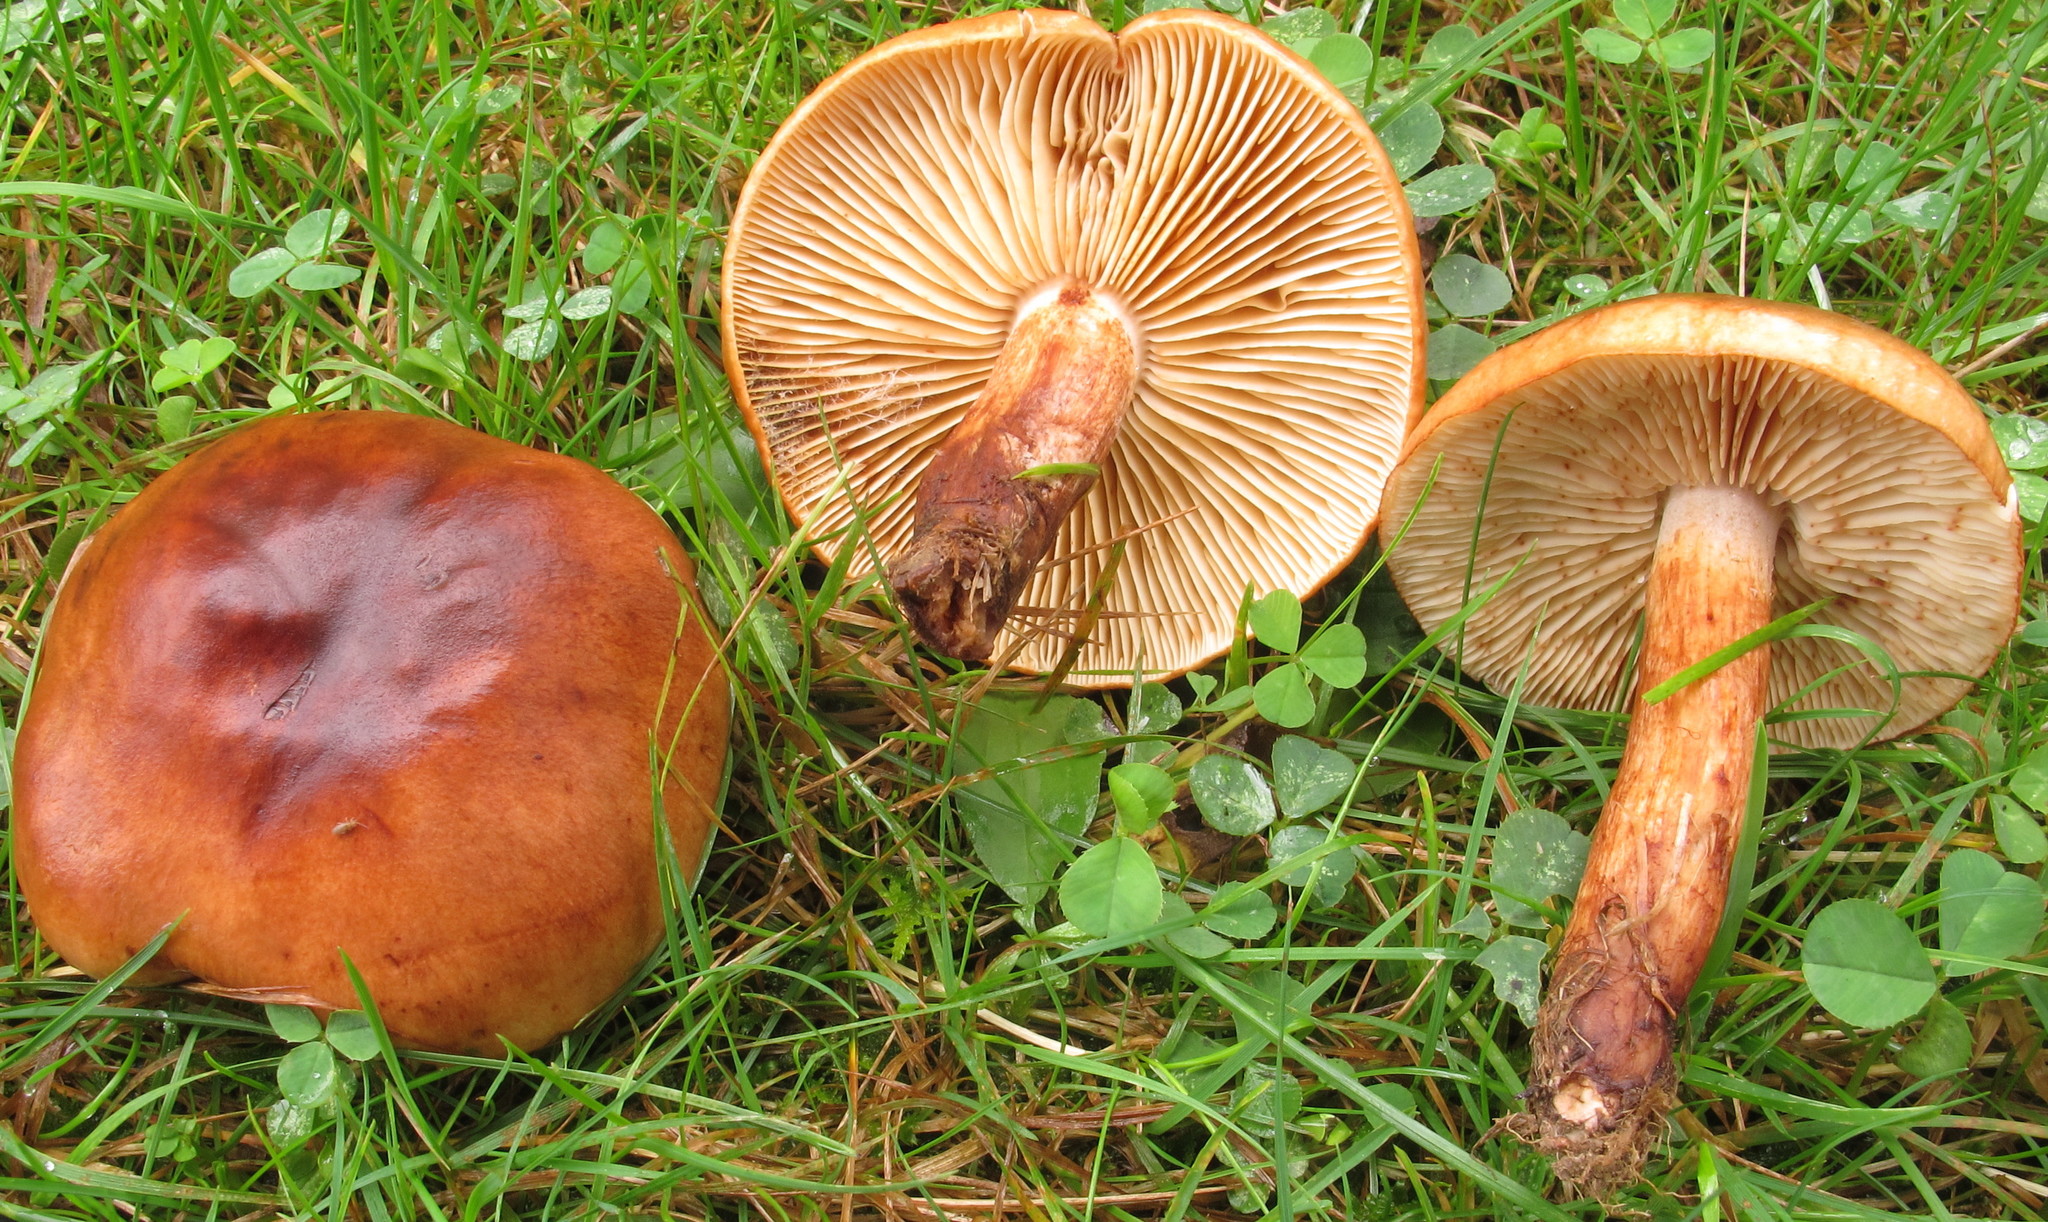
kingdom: Fungi
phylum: Basidiomycota
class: Agaricomycetes
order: Agaricales
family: Tricholomataceae
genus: Tricholoma
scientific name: Tricholoma transmutans
